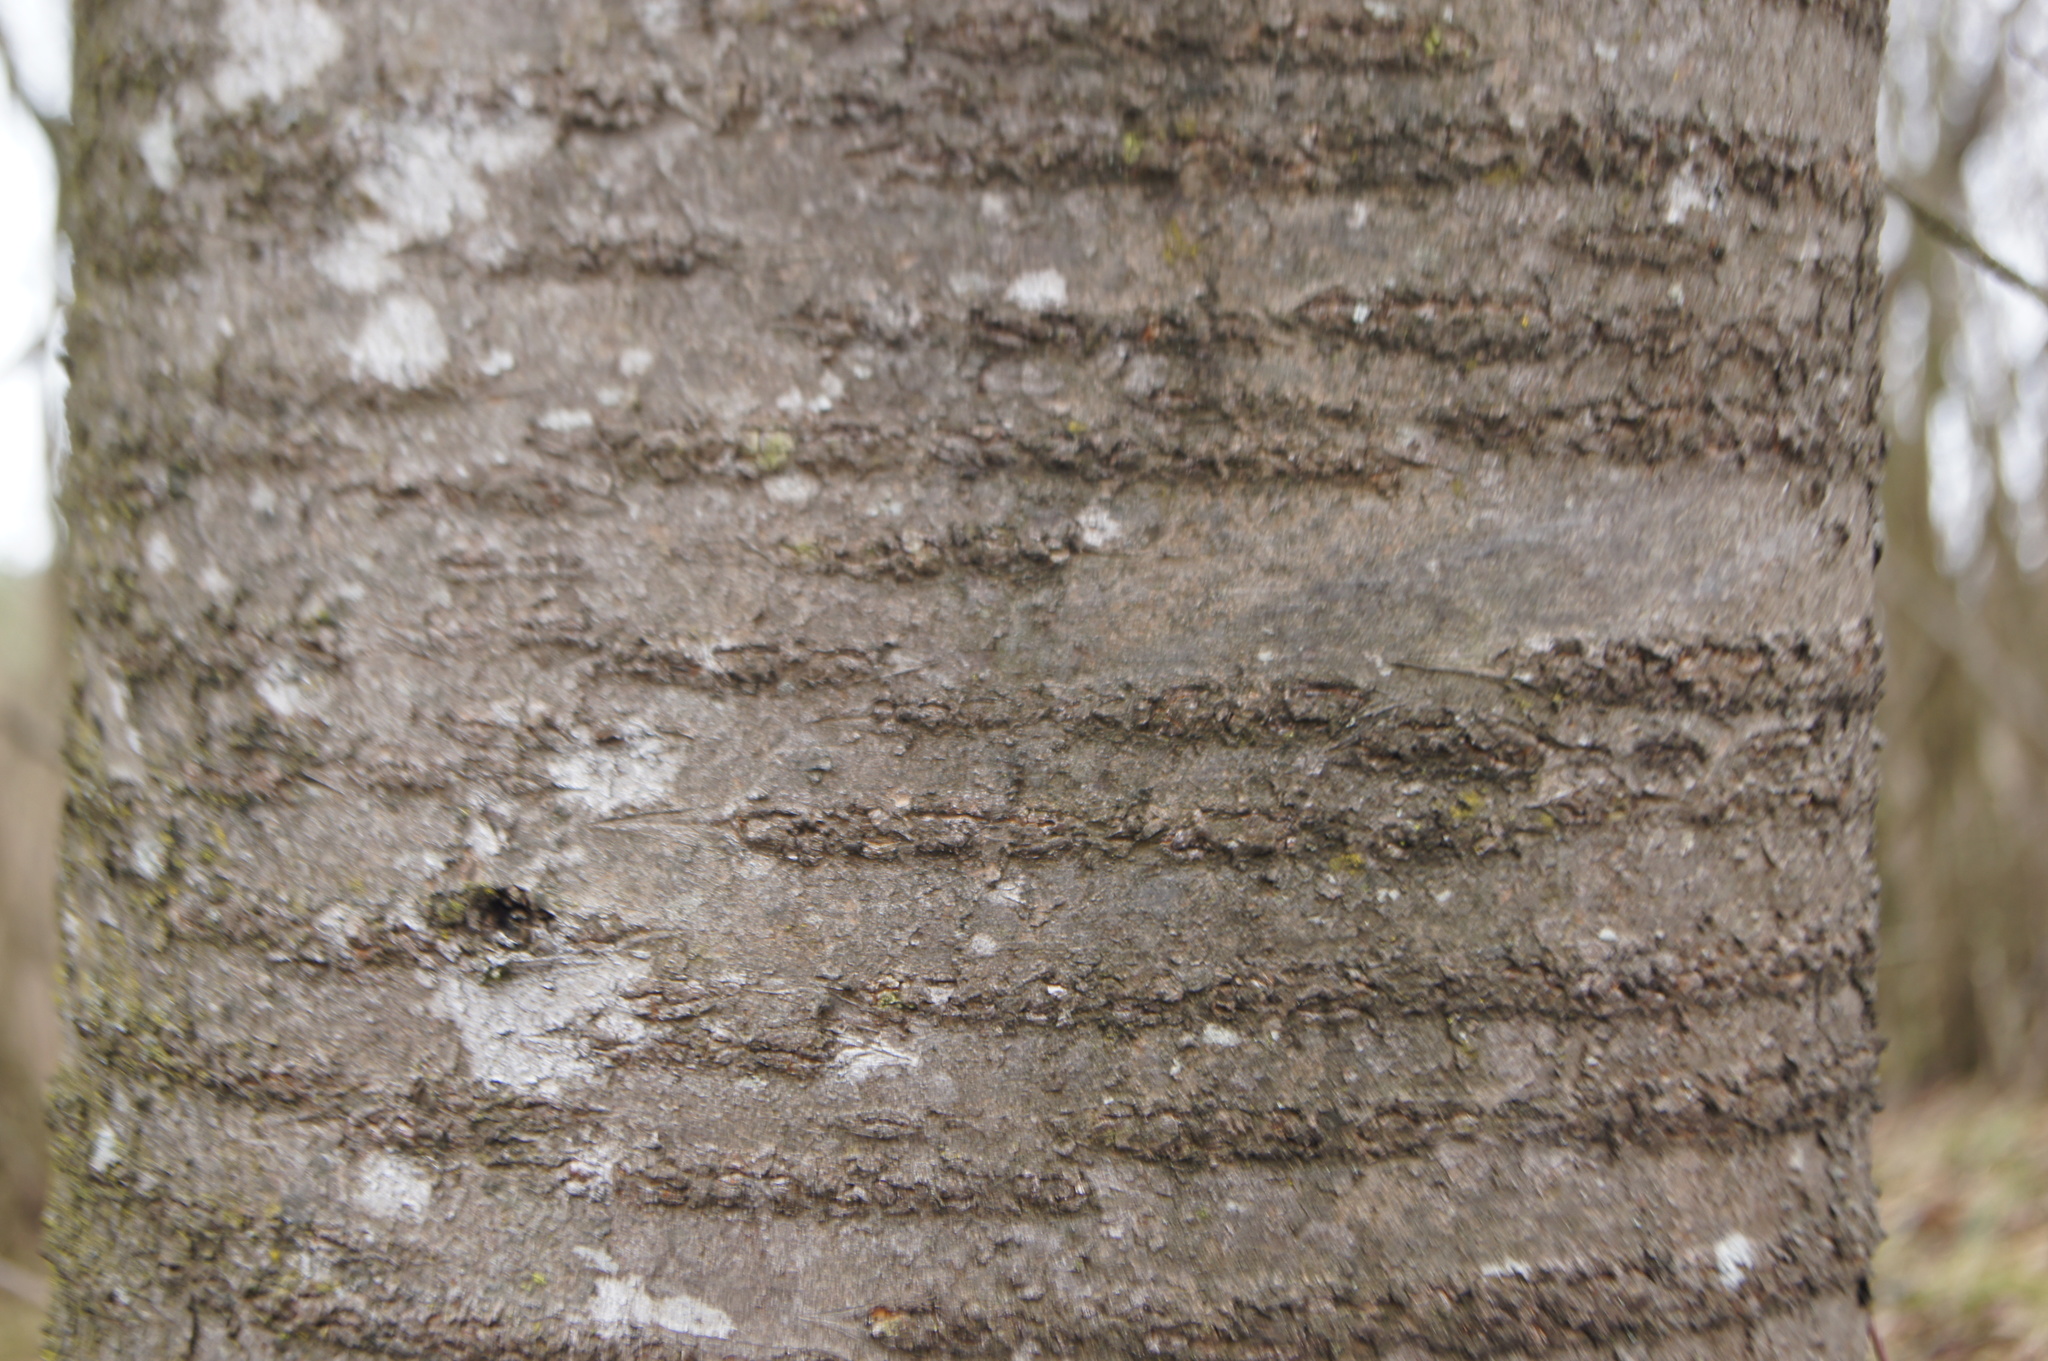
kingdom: Plantae
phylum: Tracheophyta
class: Magnoliopsida
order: Rosales
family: Rosaceae
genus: Prunus
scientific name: Prunus avium
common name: Sweet cherry
